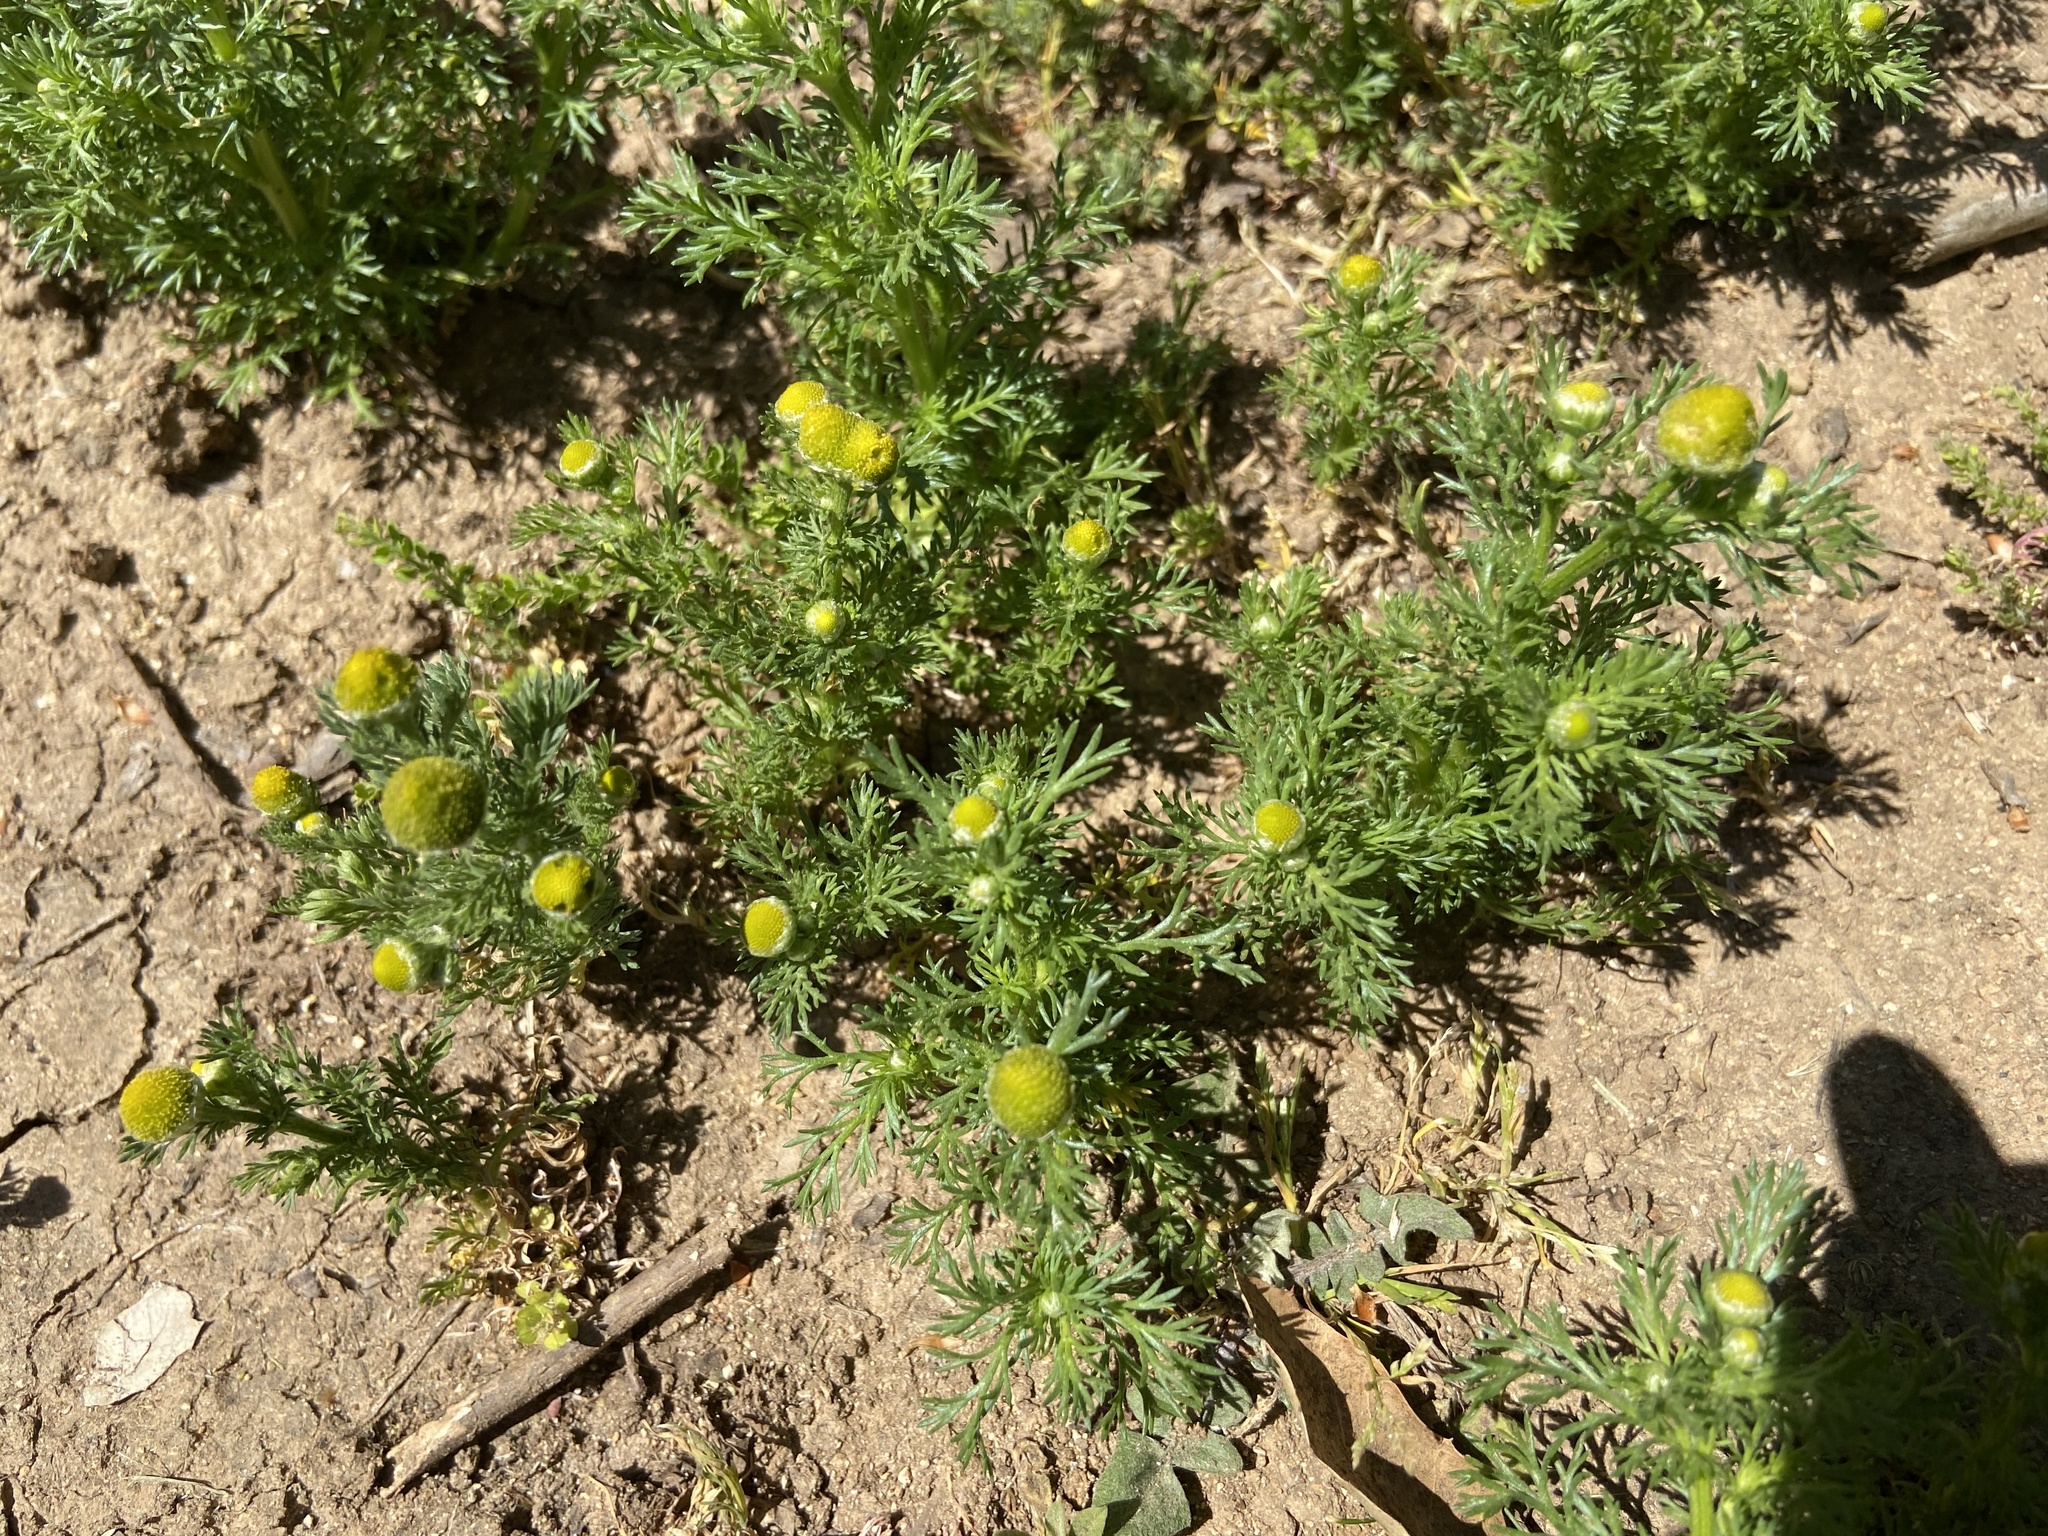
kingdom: Plantae
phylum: Tracheophyta
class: Magnoliopsida
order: Asterales
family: Asteraceae
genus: Matricaria
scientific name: Matricaria discoidea
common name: Disc mayweed
